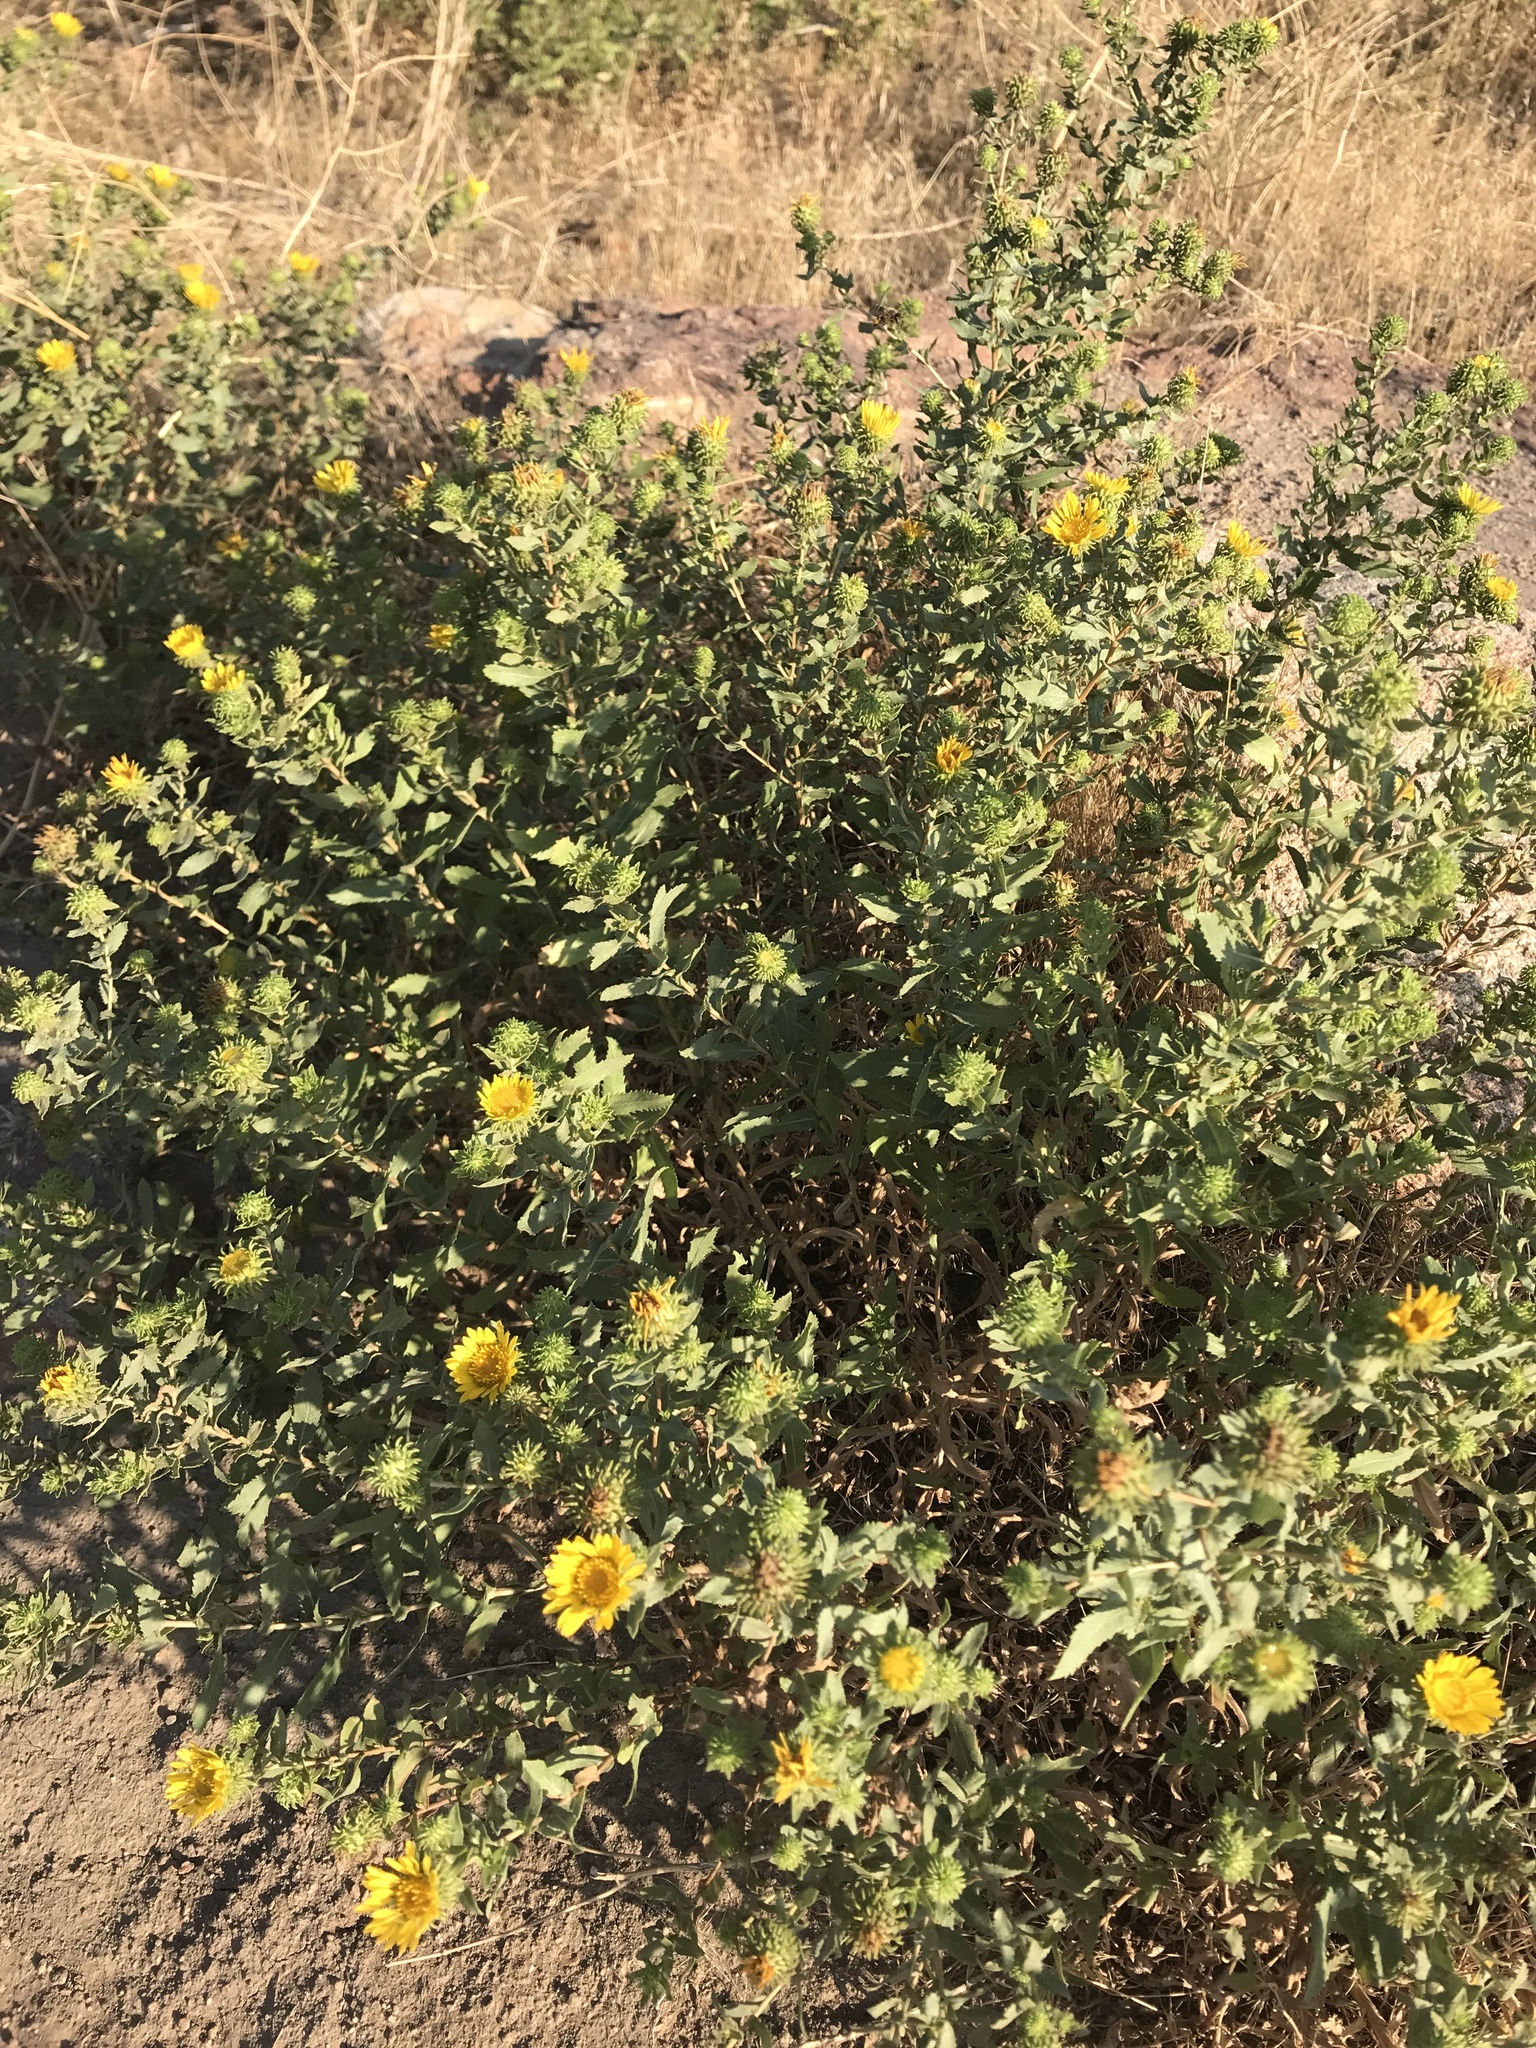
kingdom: Plantae
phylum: Tracheophyta
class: Magnoliopsida
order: Asterales
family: Asteraceae
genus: Grindelia
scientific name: Grindelia squarrosa
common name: Curly-cup gumweed
